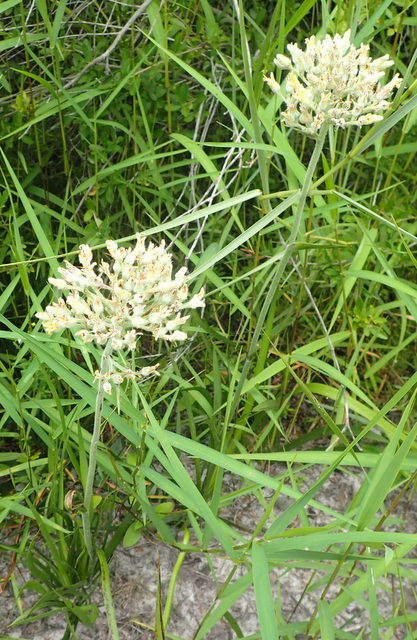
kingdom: Plantae
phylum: Tracheophyta
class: Liliopsida
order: Commelinales
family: Haemodoraceae
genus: Lachnanthes
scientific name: Lachnanthes caroliana
